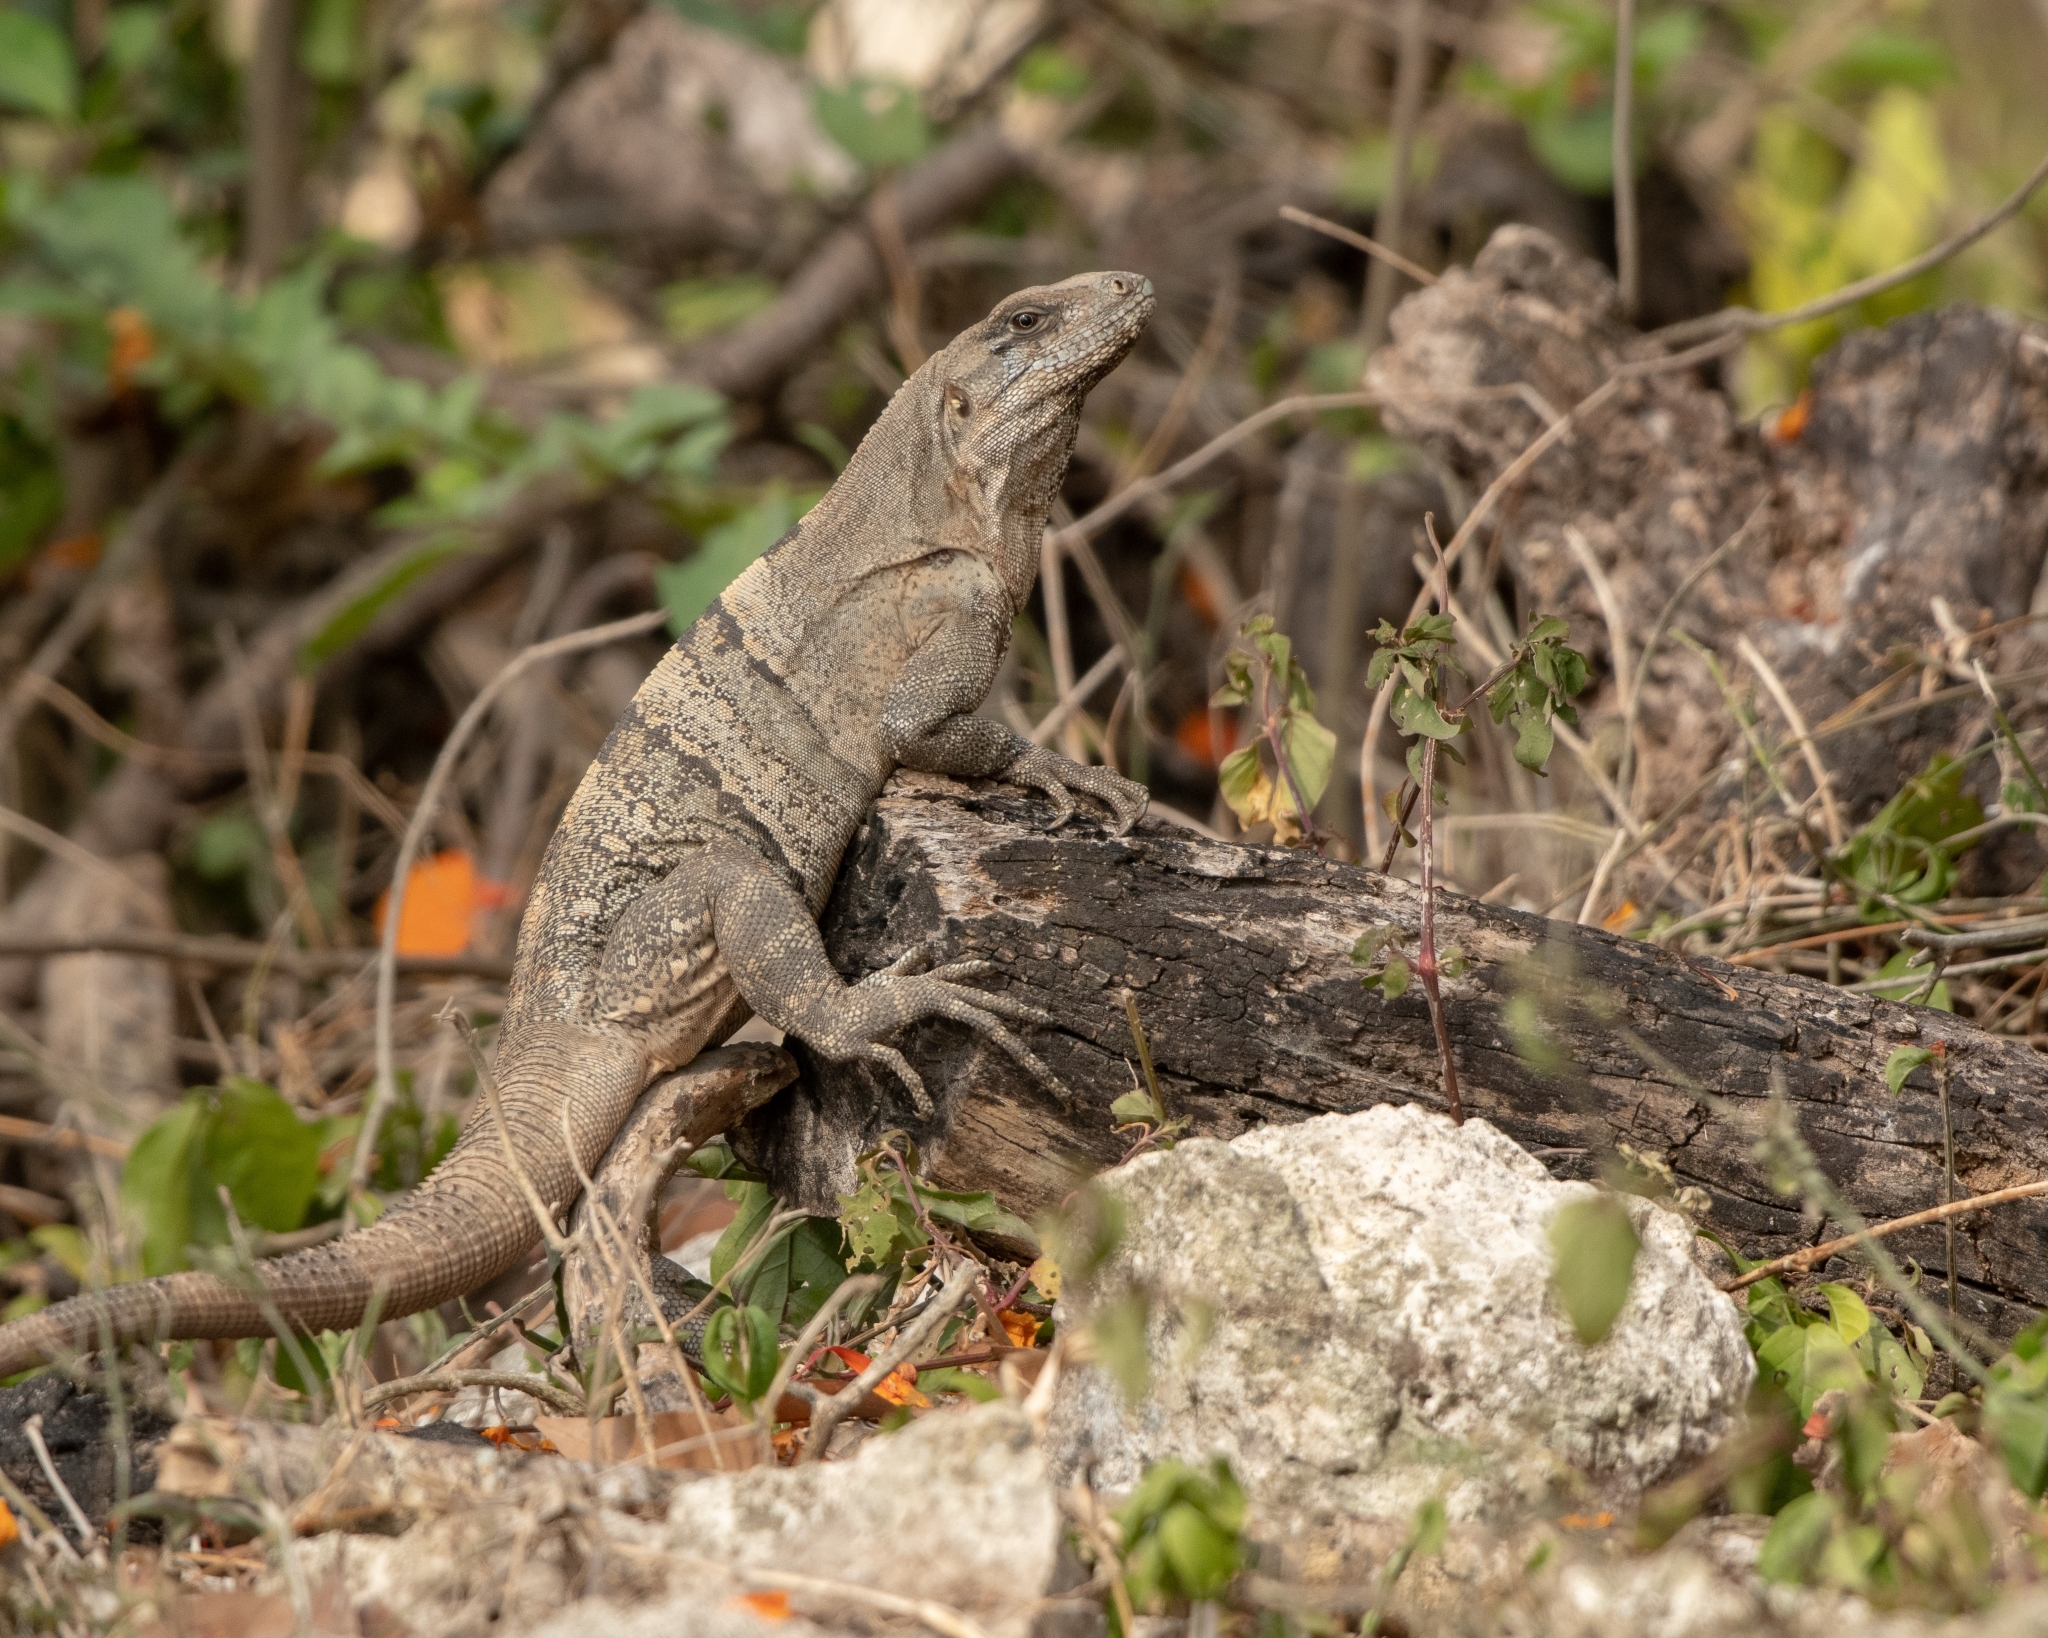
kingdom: Animalia
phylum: Chordata
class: Squamata
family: Iguanidae
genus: Ctenosaura
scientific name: Ctenosaura similis
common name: Black spiny-tailed iguana
